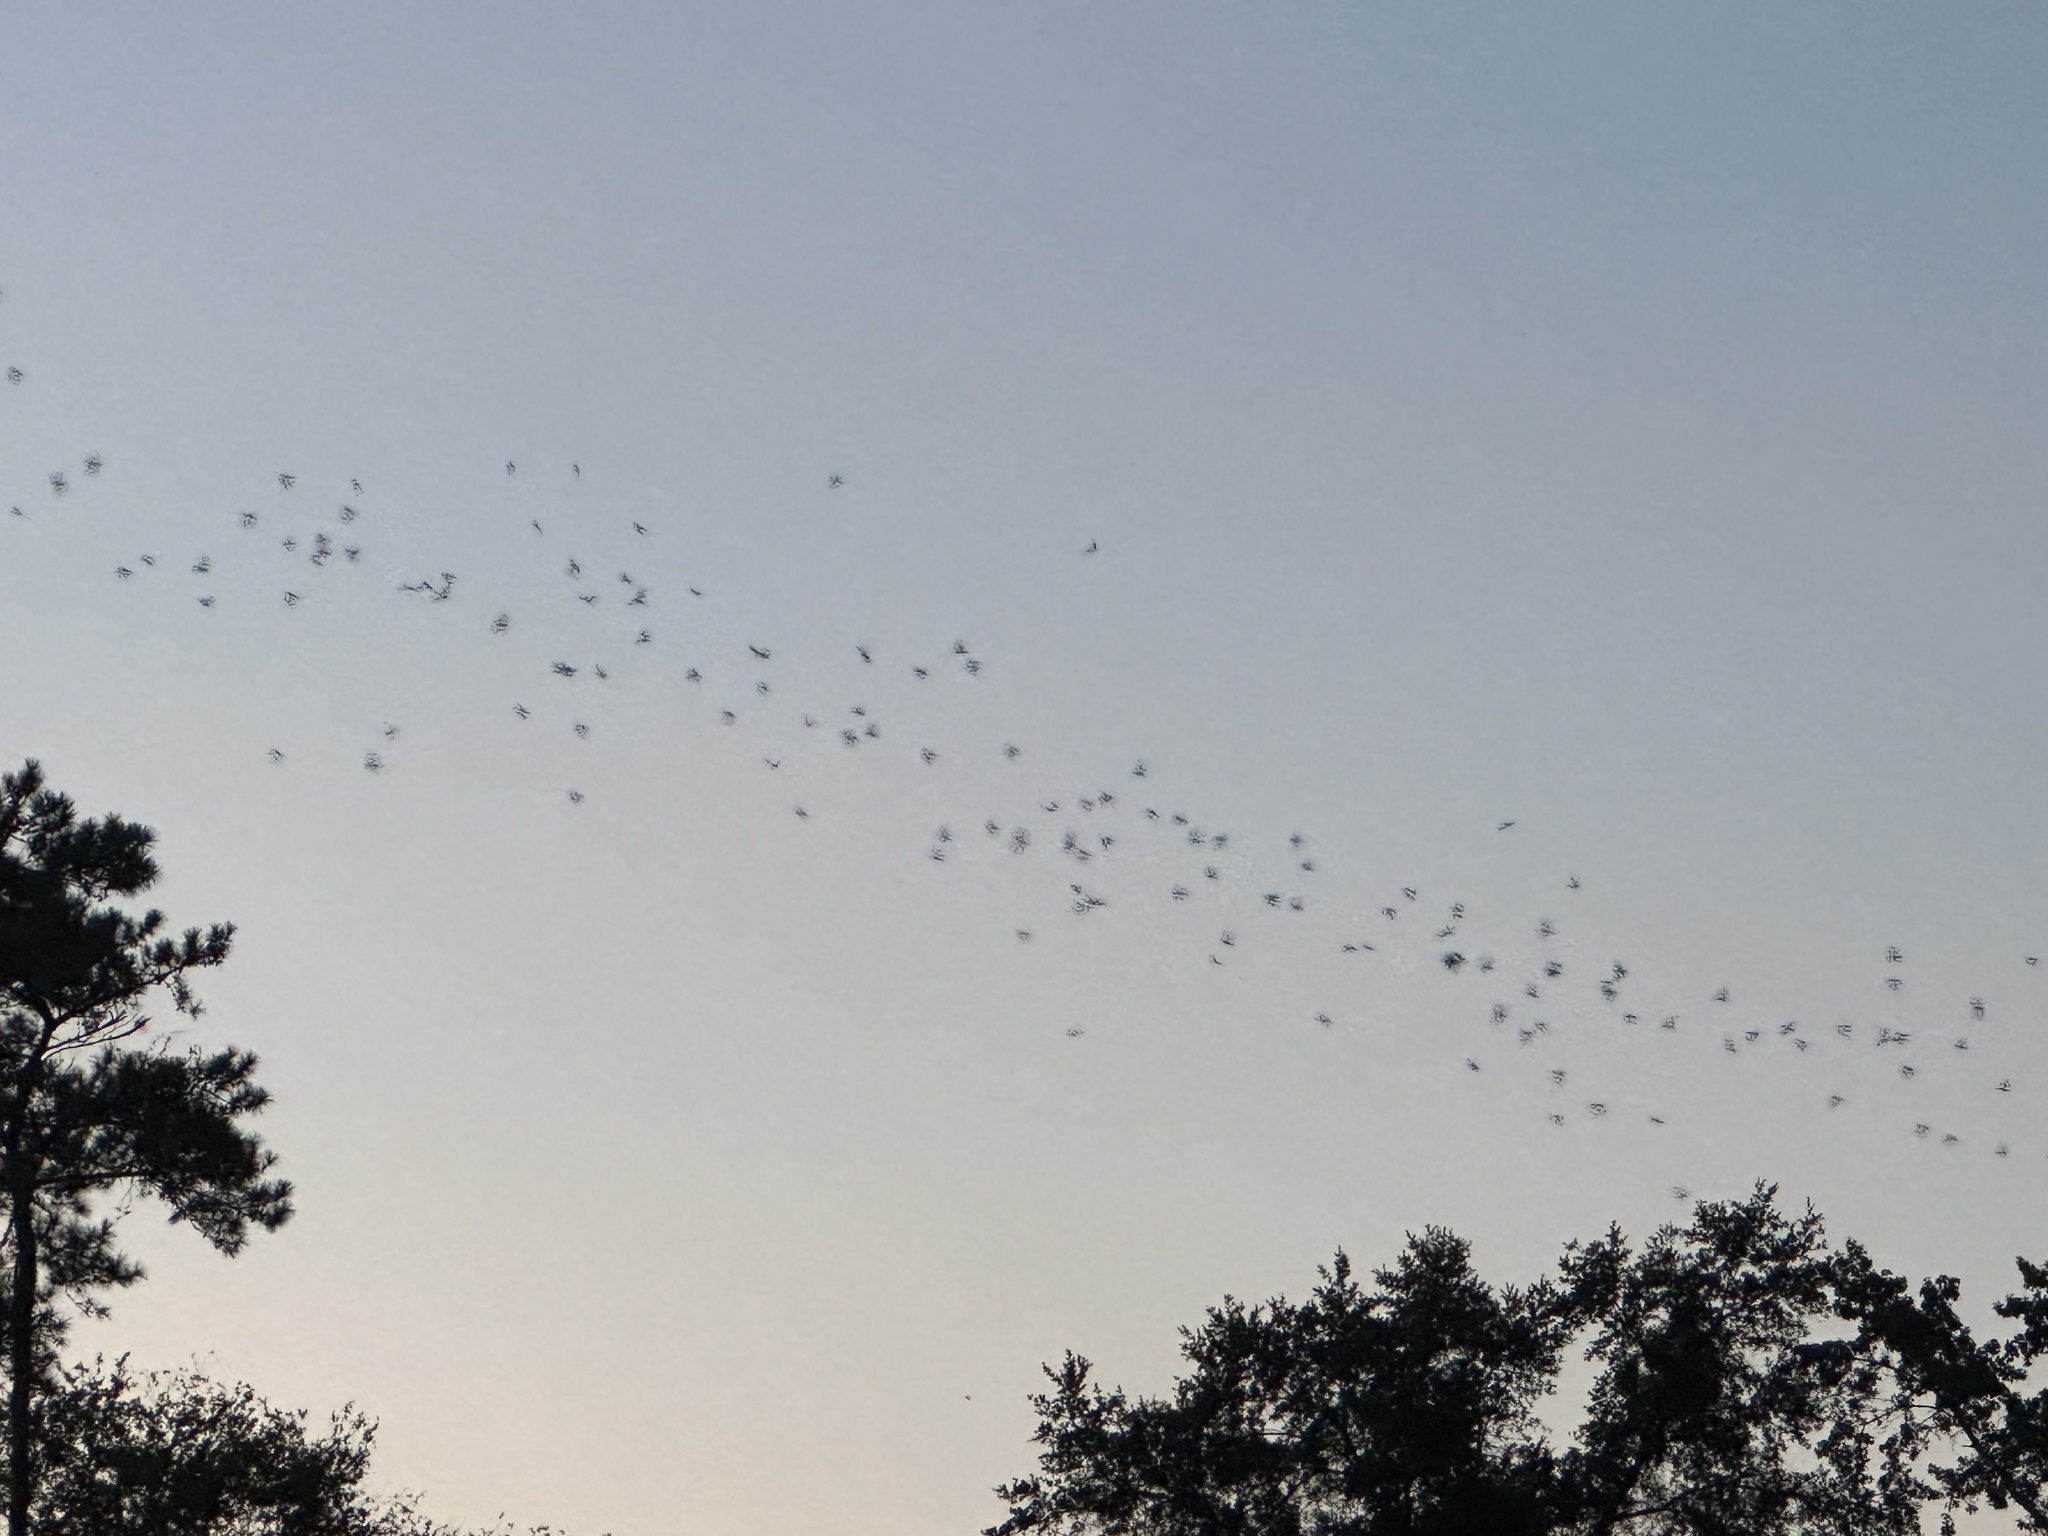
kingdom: Animalia
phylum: Chordata
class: Mammalia
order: Chiroptera
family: Molossidae
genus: Tadarida
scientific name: Tadarida brasiliensis
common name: Mexican free-tailed bat
